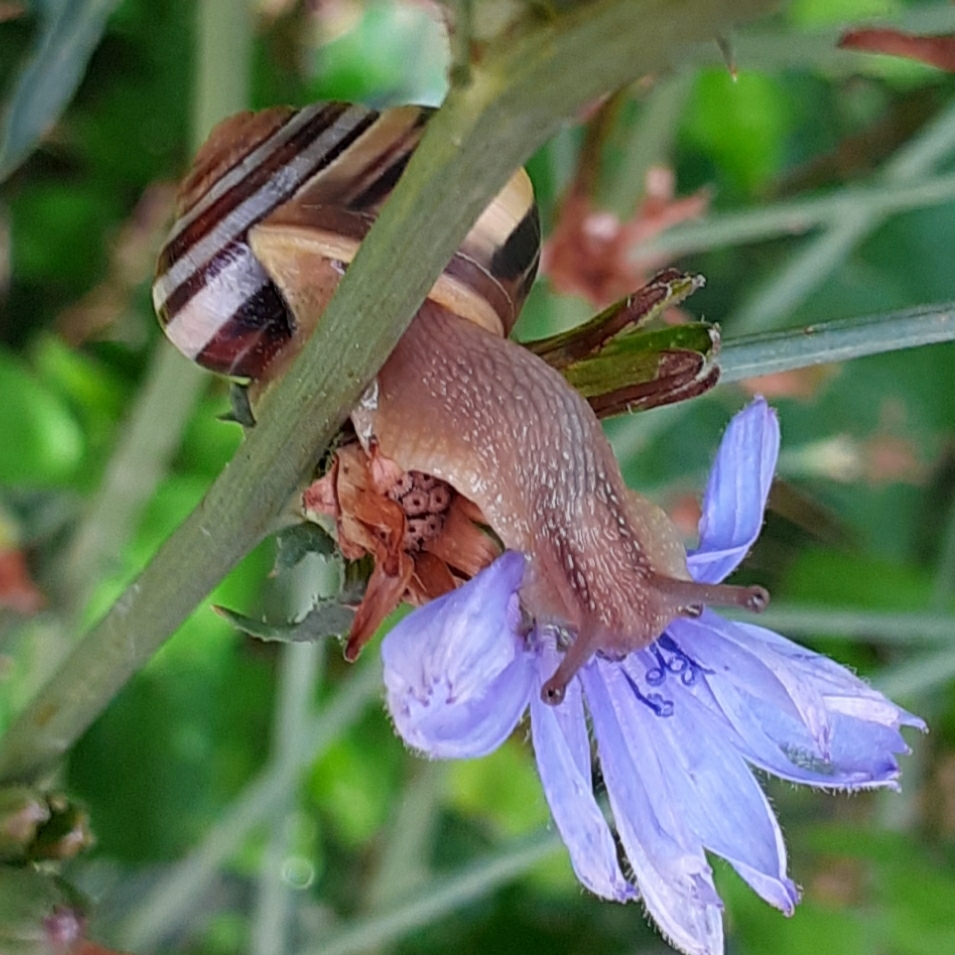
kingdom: Animalia
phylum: Mollusca
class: Gastropoda
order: Stylommatophora
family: Helicidae
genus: Cepaea
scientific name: Cepaea nemoralis
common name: Grovesnail
